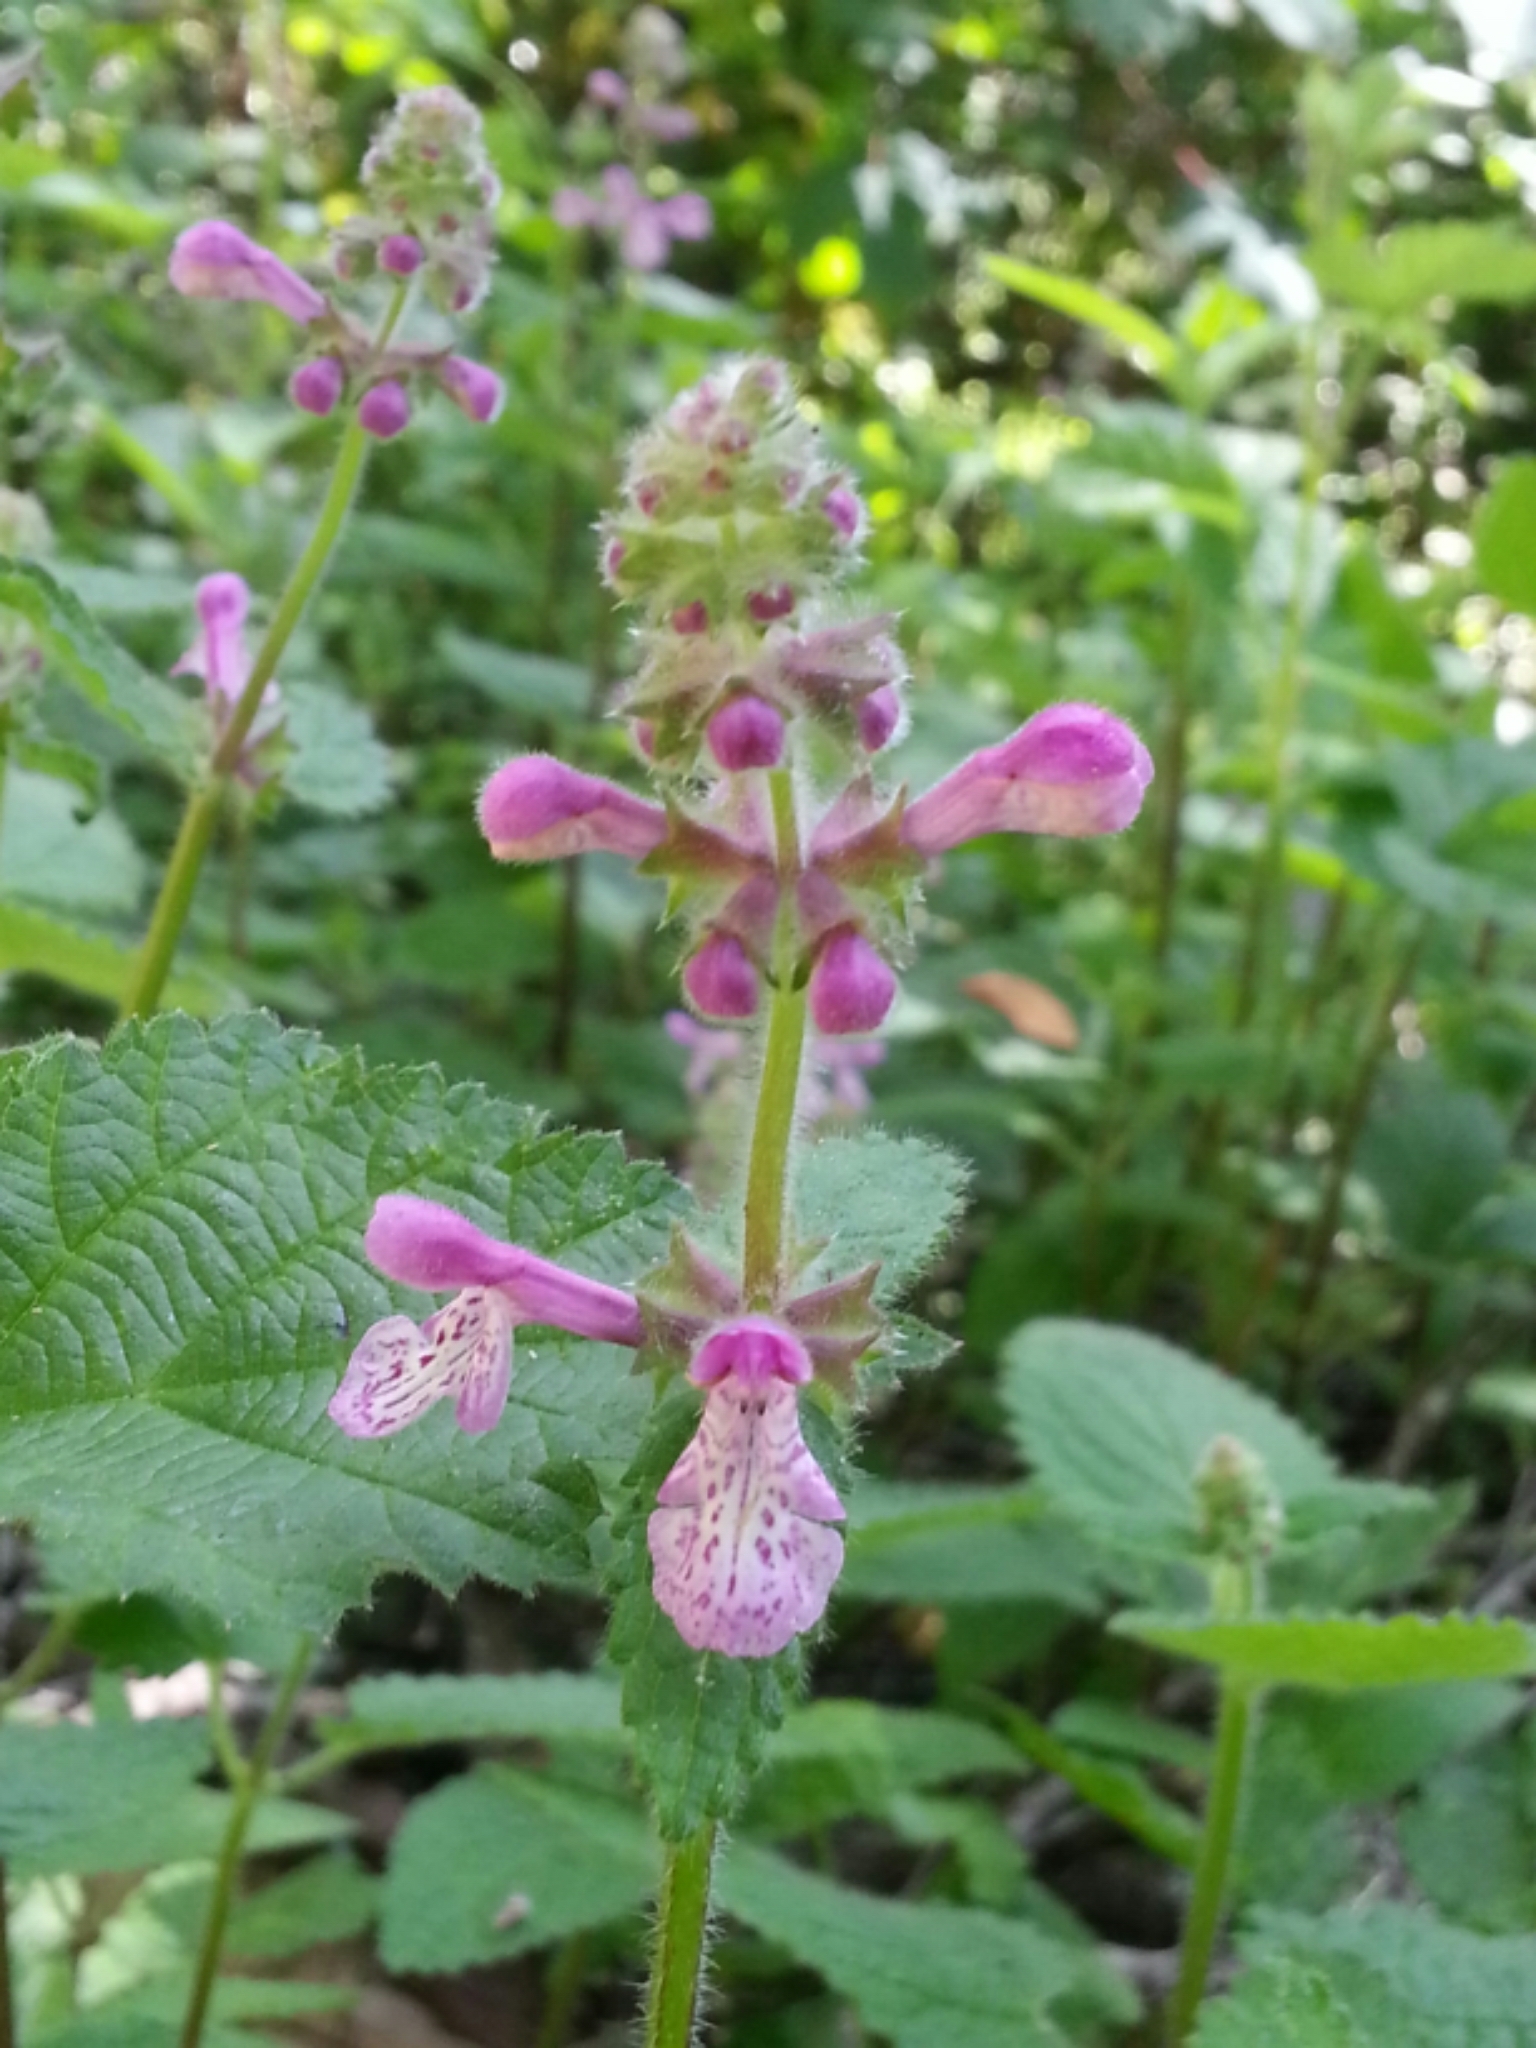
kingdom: Plantae
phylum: Tracheophyta
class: Magnoliopsida
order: Lamiales
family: Lamiaceae
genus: Stachys
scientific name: Stachys bullata
